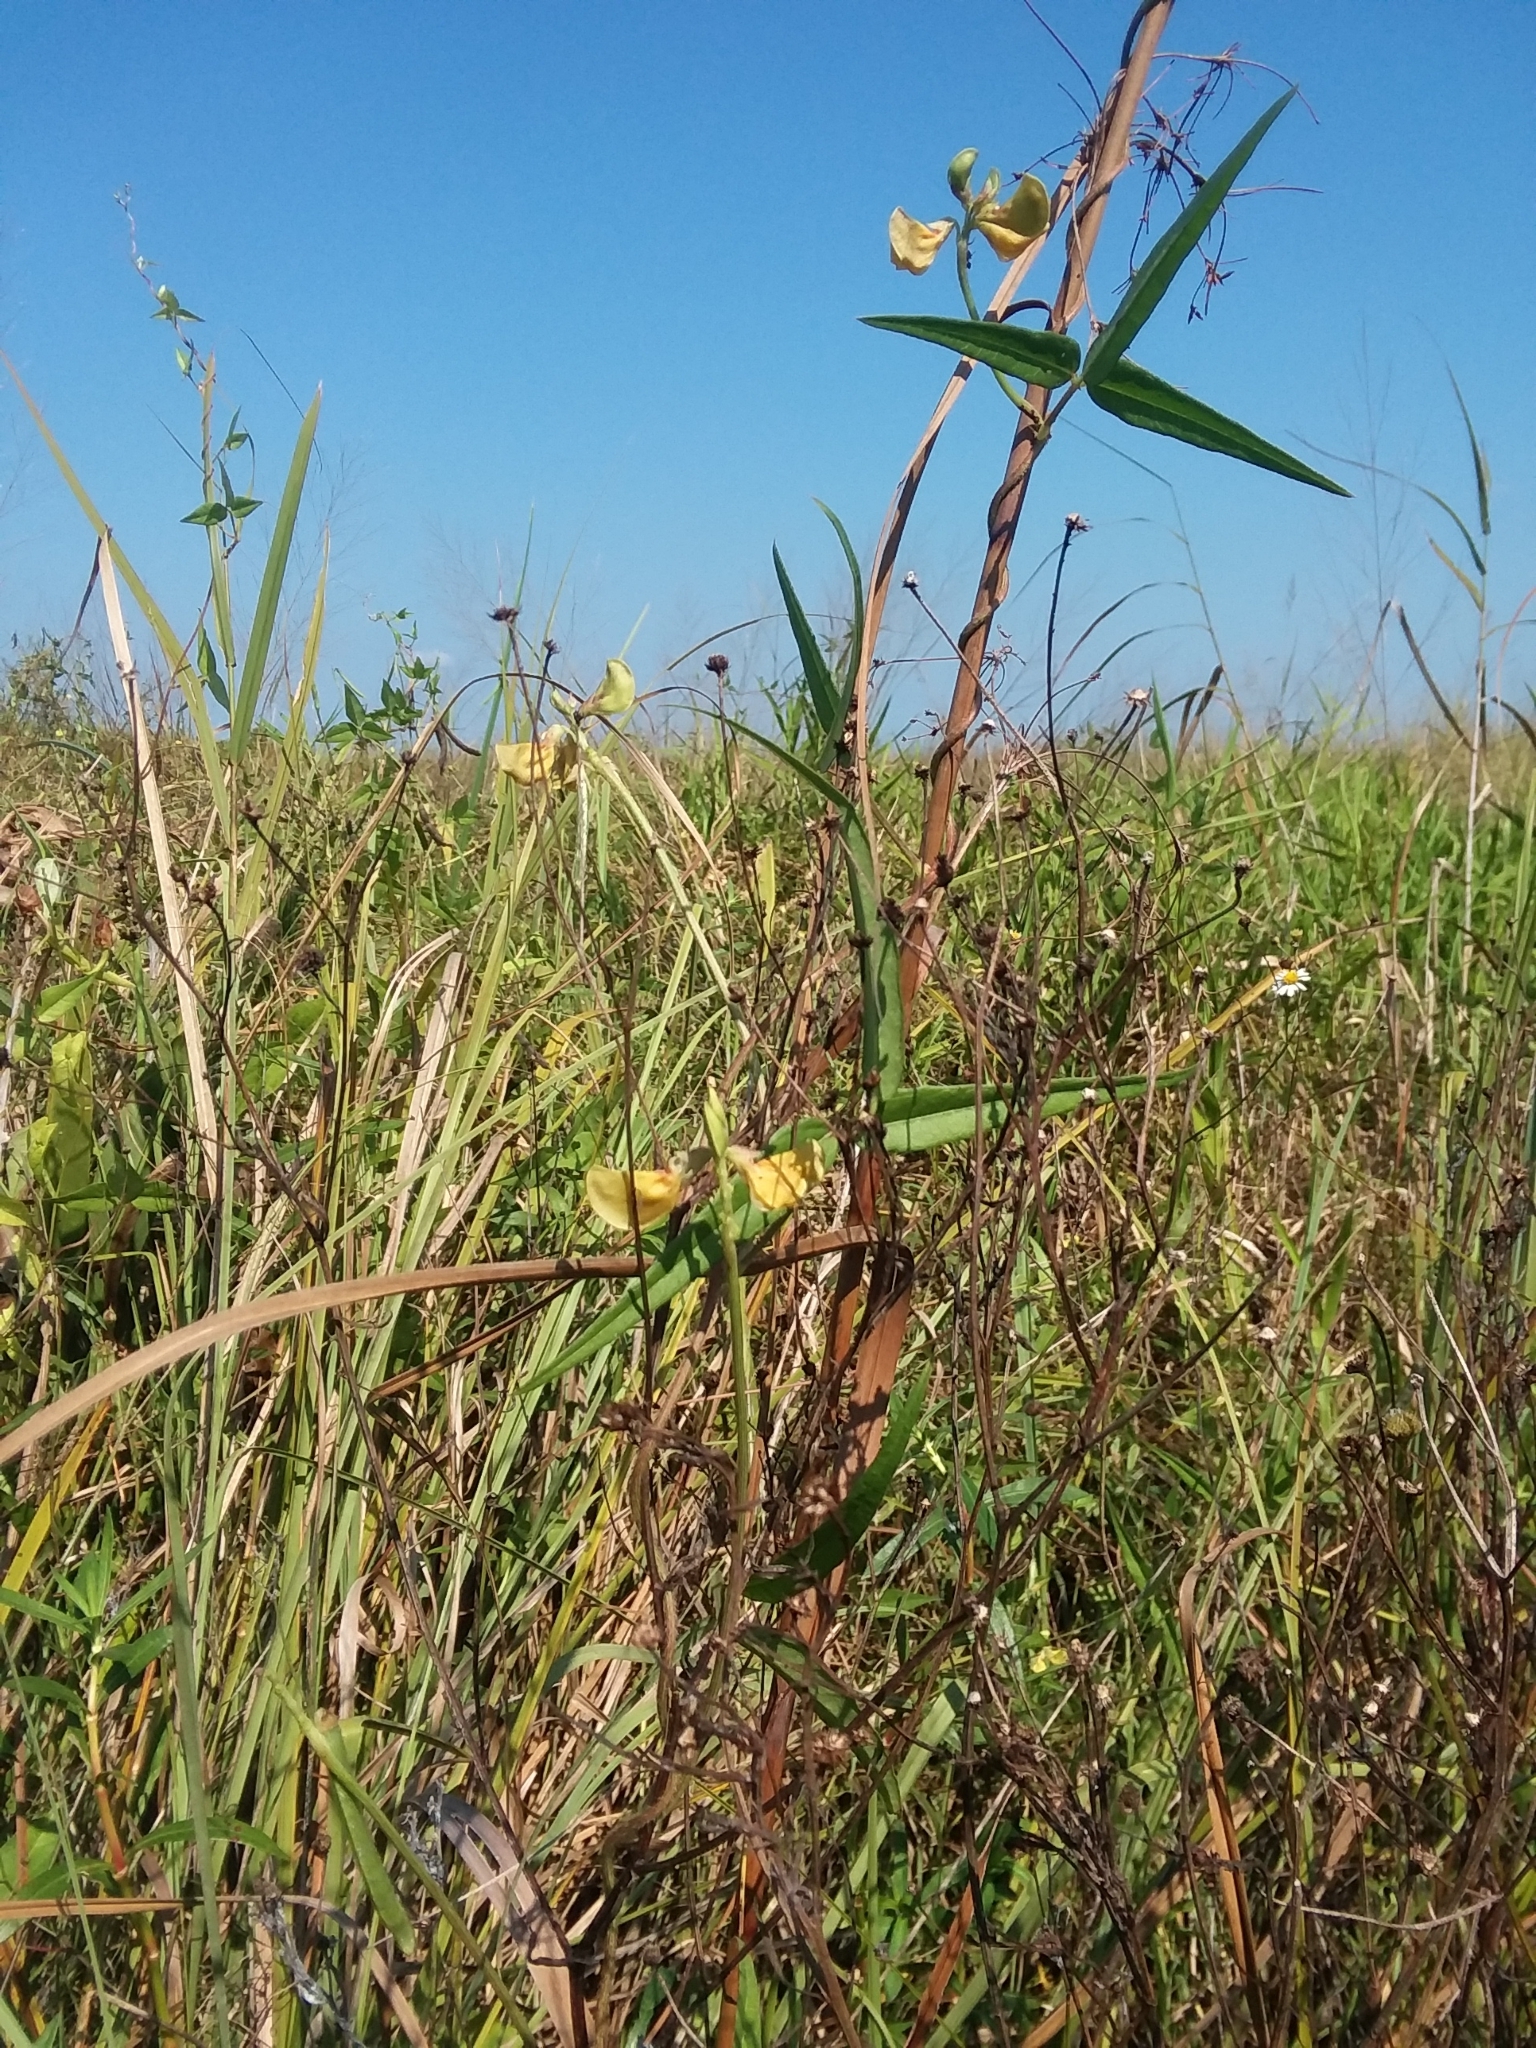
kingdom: Plantae
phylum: Tracheophyta
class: Magnoliopsida
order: Fabales
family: Fabaceae
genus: Vigna
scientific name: Vigna luteola
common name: Hairypod cowpea
